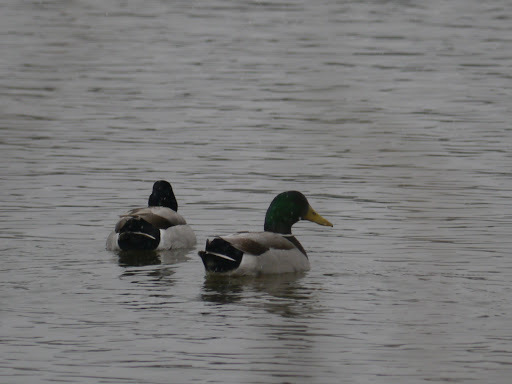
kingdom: Animalia
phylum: Chordata
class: Aves
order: Anseriformes
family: Anatidae
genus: Anas
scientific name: Anas platyrhynchos
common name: Mallard
